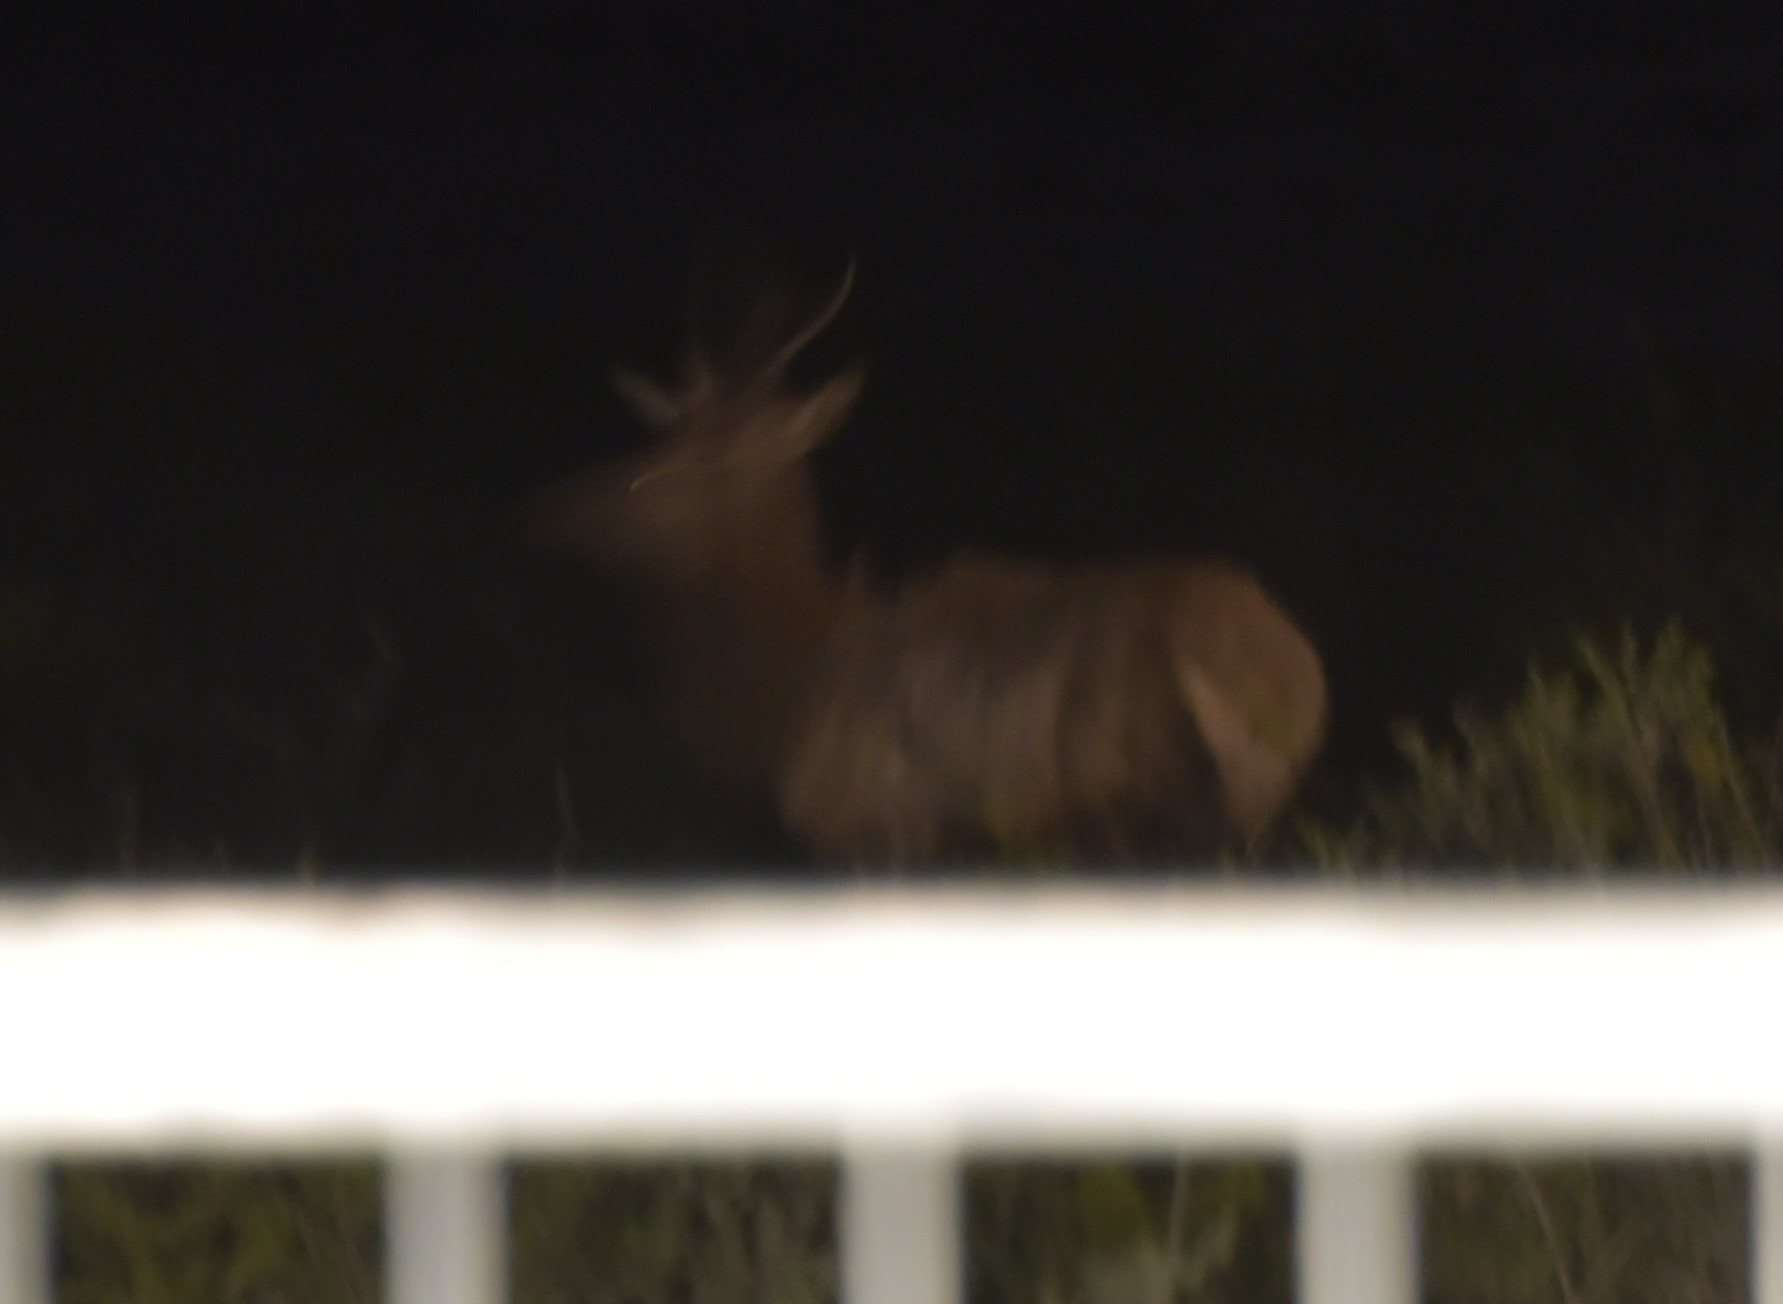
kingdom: Animalia
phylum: Chordata
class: Mammalia
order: Artiodactyla
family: Cervidae
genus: Cervus
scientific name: Cervus elaphus
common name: Red deer
